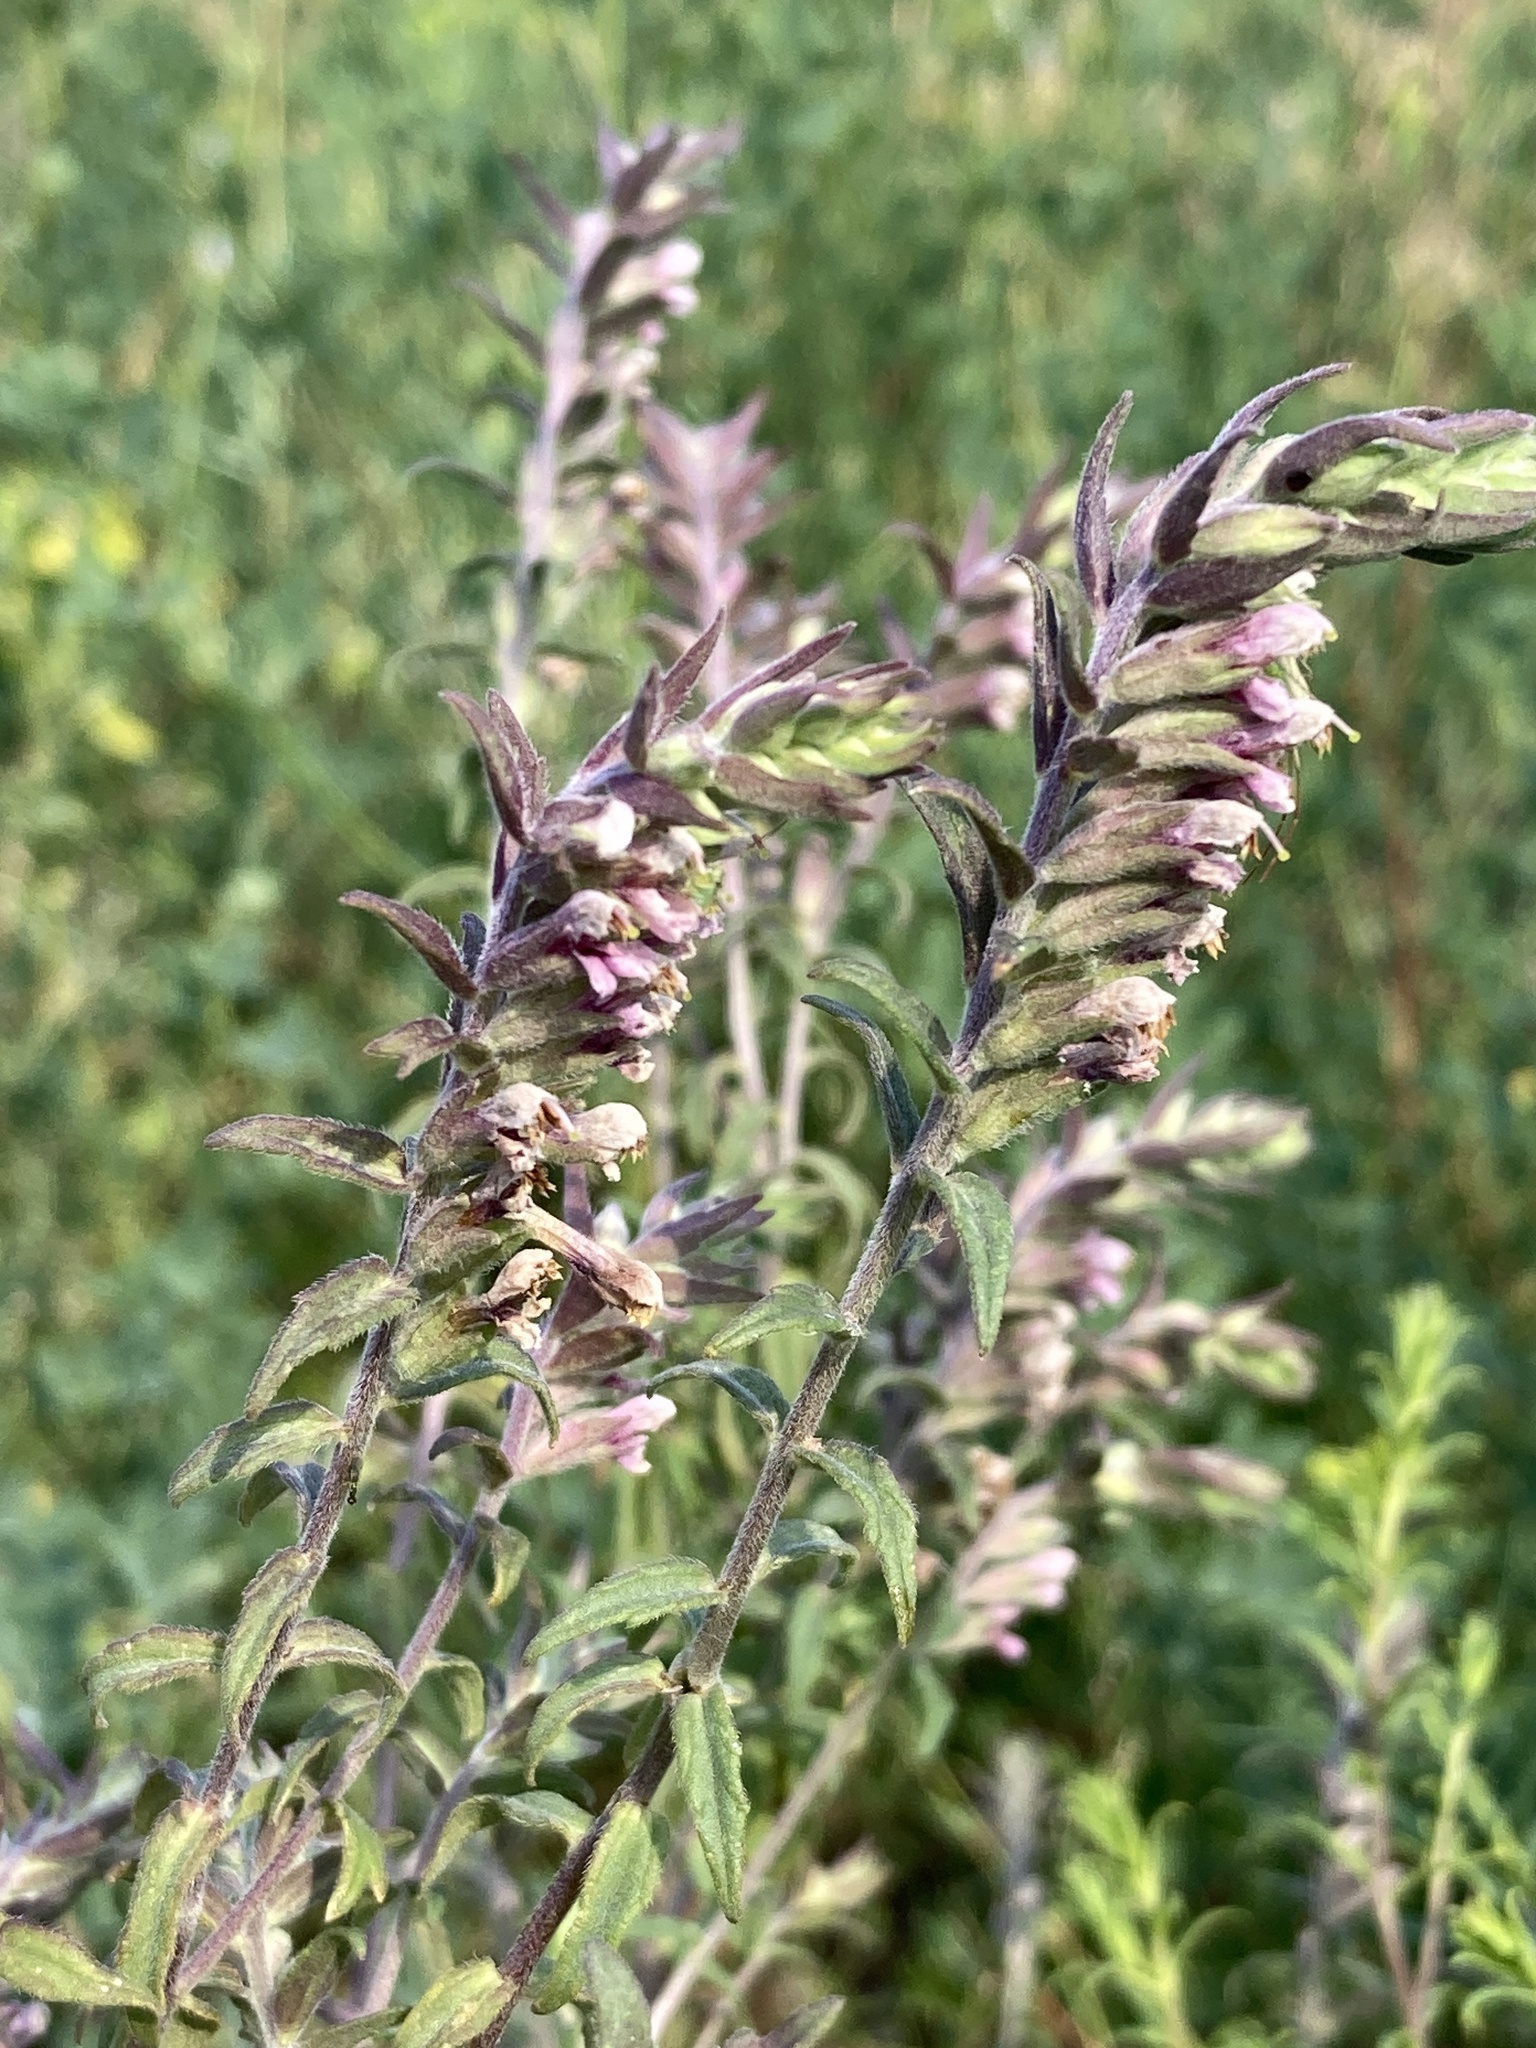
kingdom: Plantae
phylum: Tracheophyta
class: Magnoliopsida
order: Lamiales
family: Orobanchaceae
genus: Odontites
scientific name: Odontites vulgaris
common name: Broomrape
